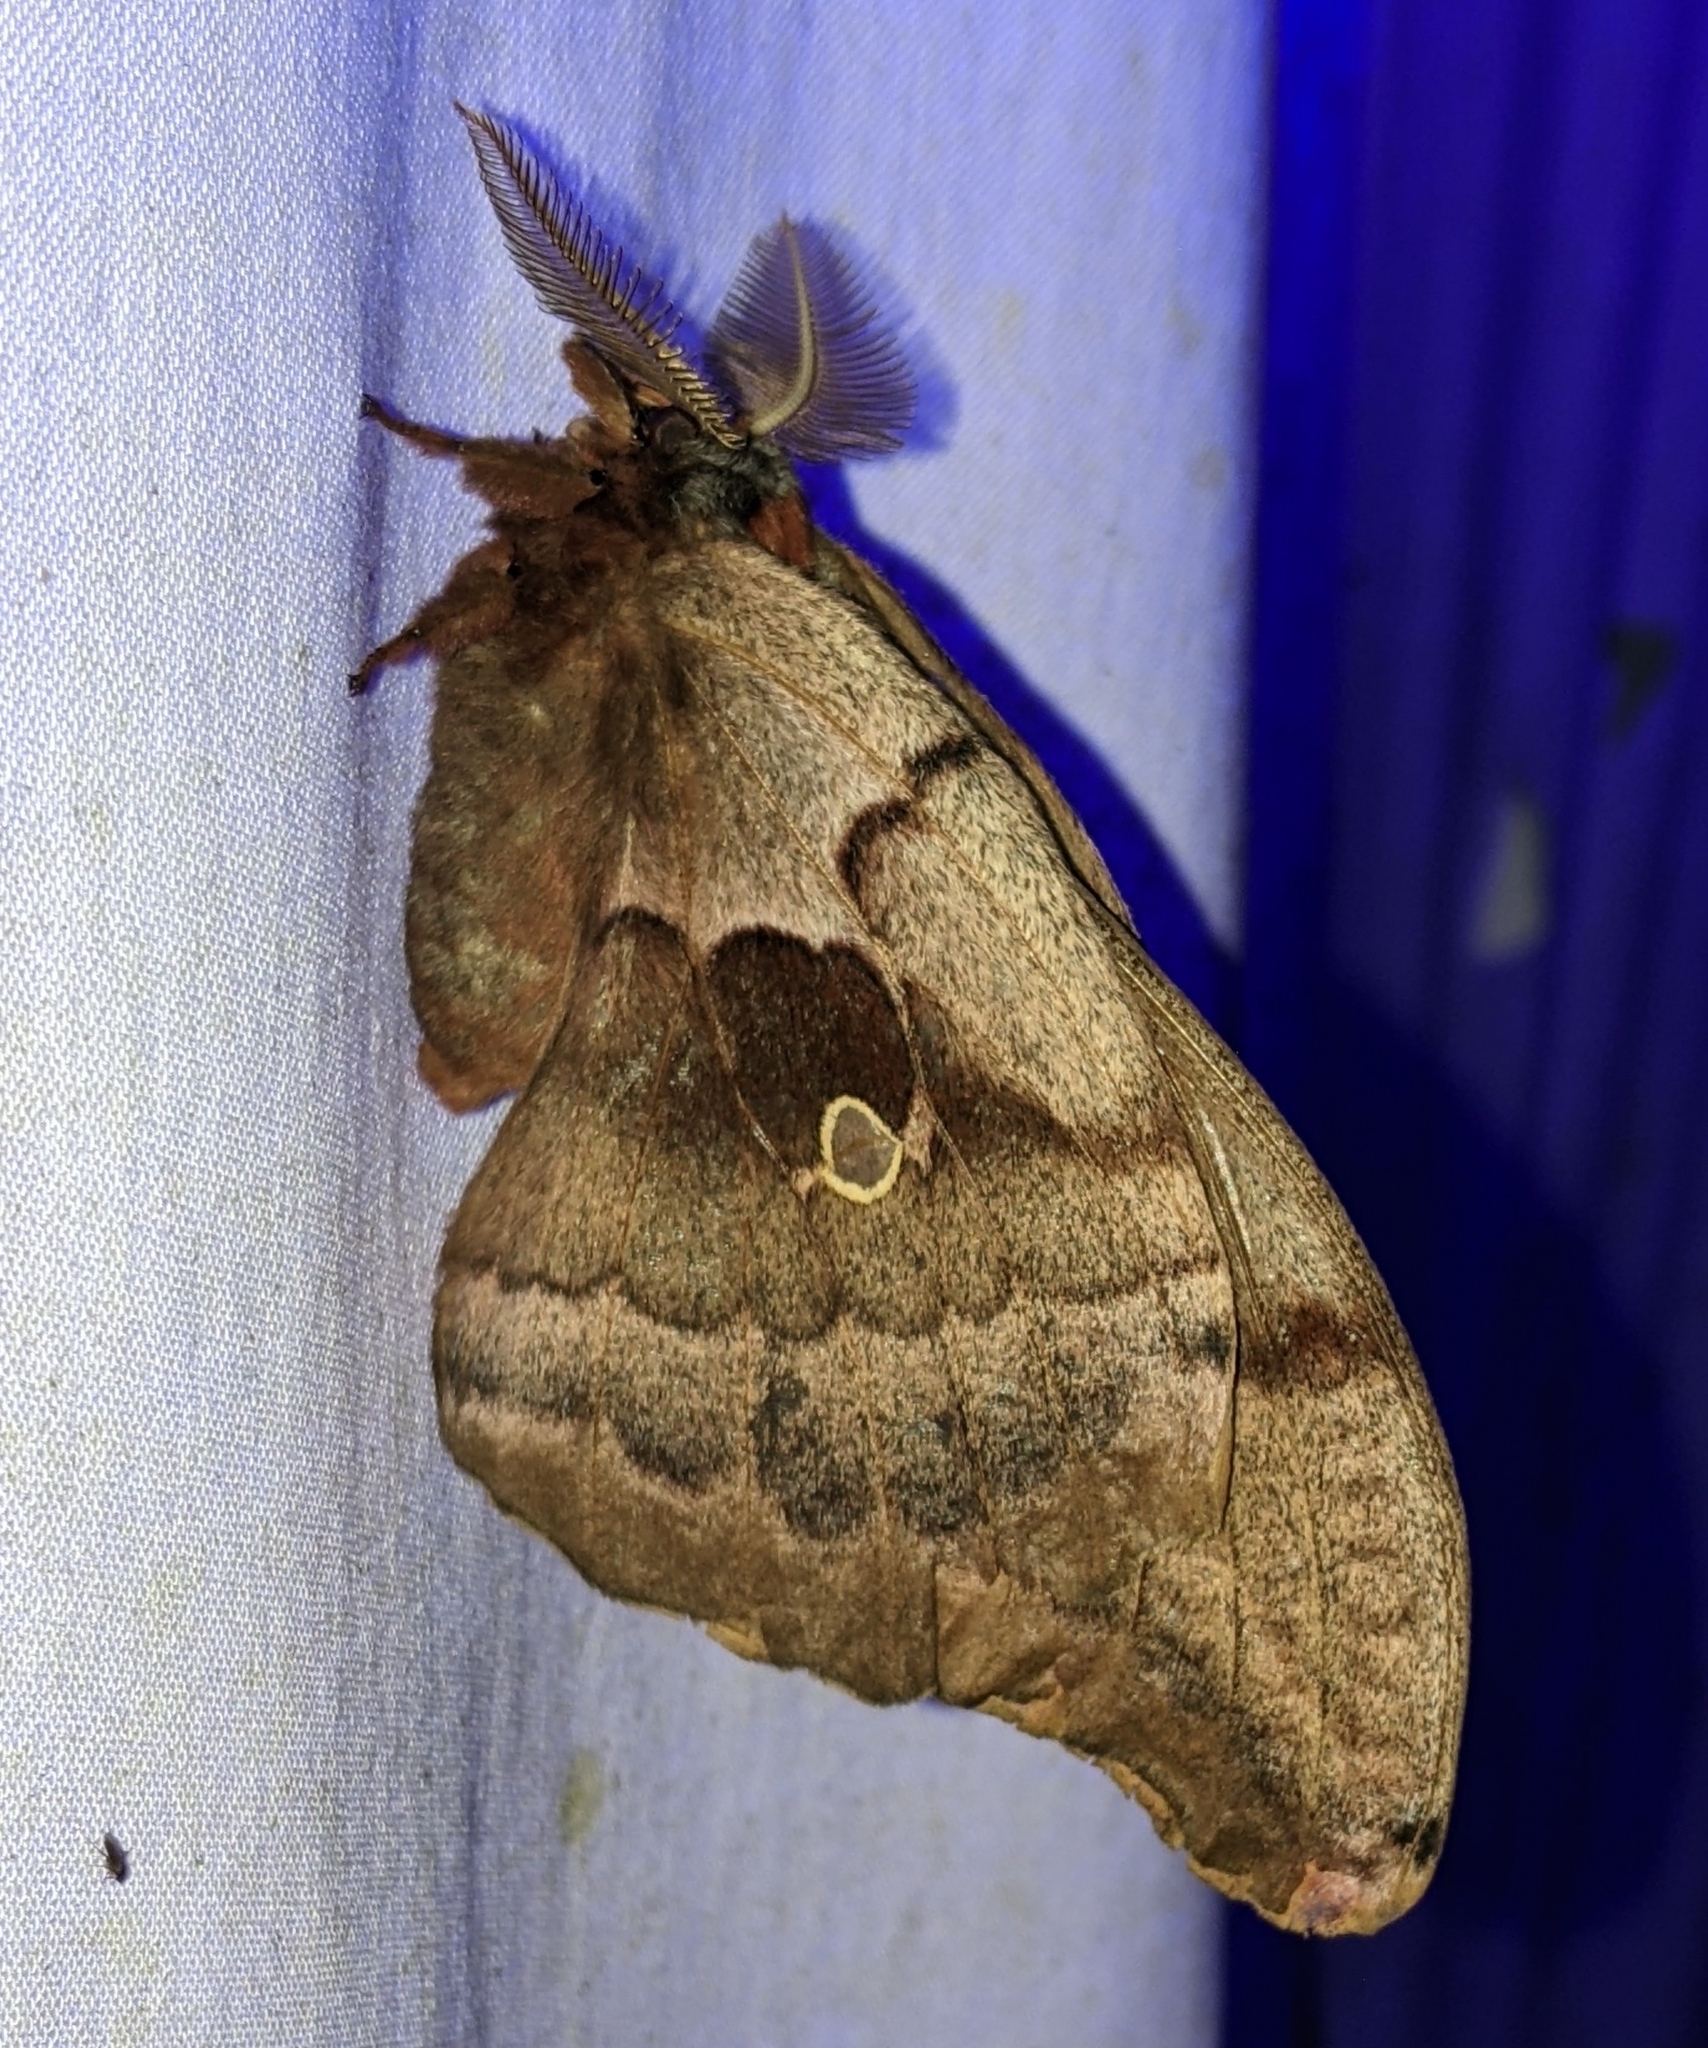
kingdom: Animalia
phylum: Arthropoda
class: Insecta
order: Lepidoptera
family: Saturniidae
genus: Antheraea
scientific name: Antheraea polyphemus
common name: Polyphemus moth
